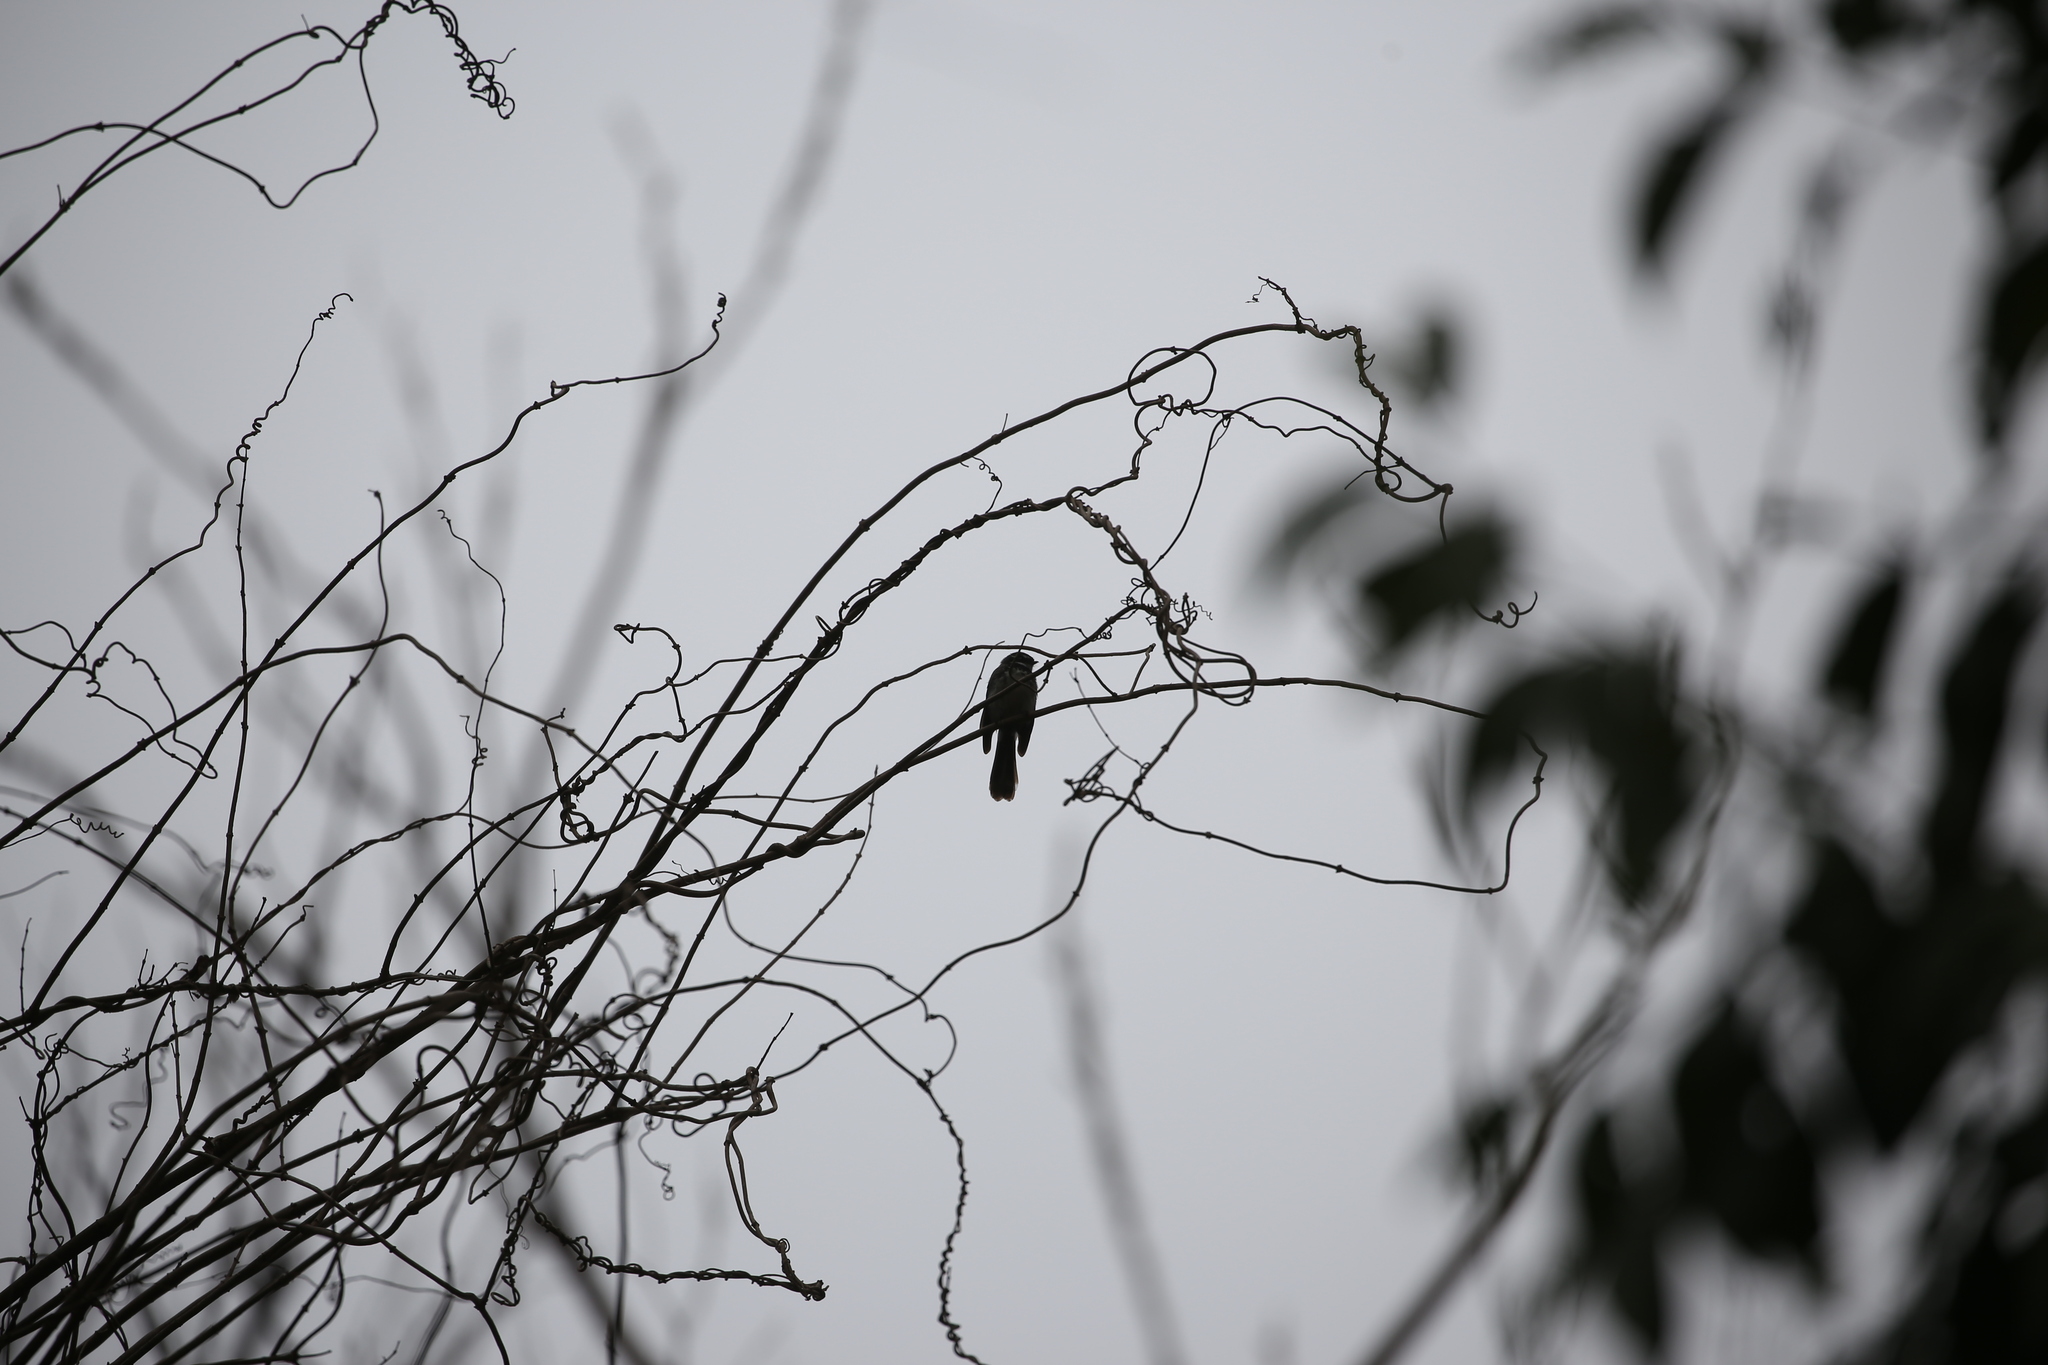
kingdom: Animalia
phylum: Chordata
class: Aves
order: Passeriformes
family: Rhipiduridae
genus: Rhipidura
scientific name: Rhipidura albiscapa
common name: Grey fantail
